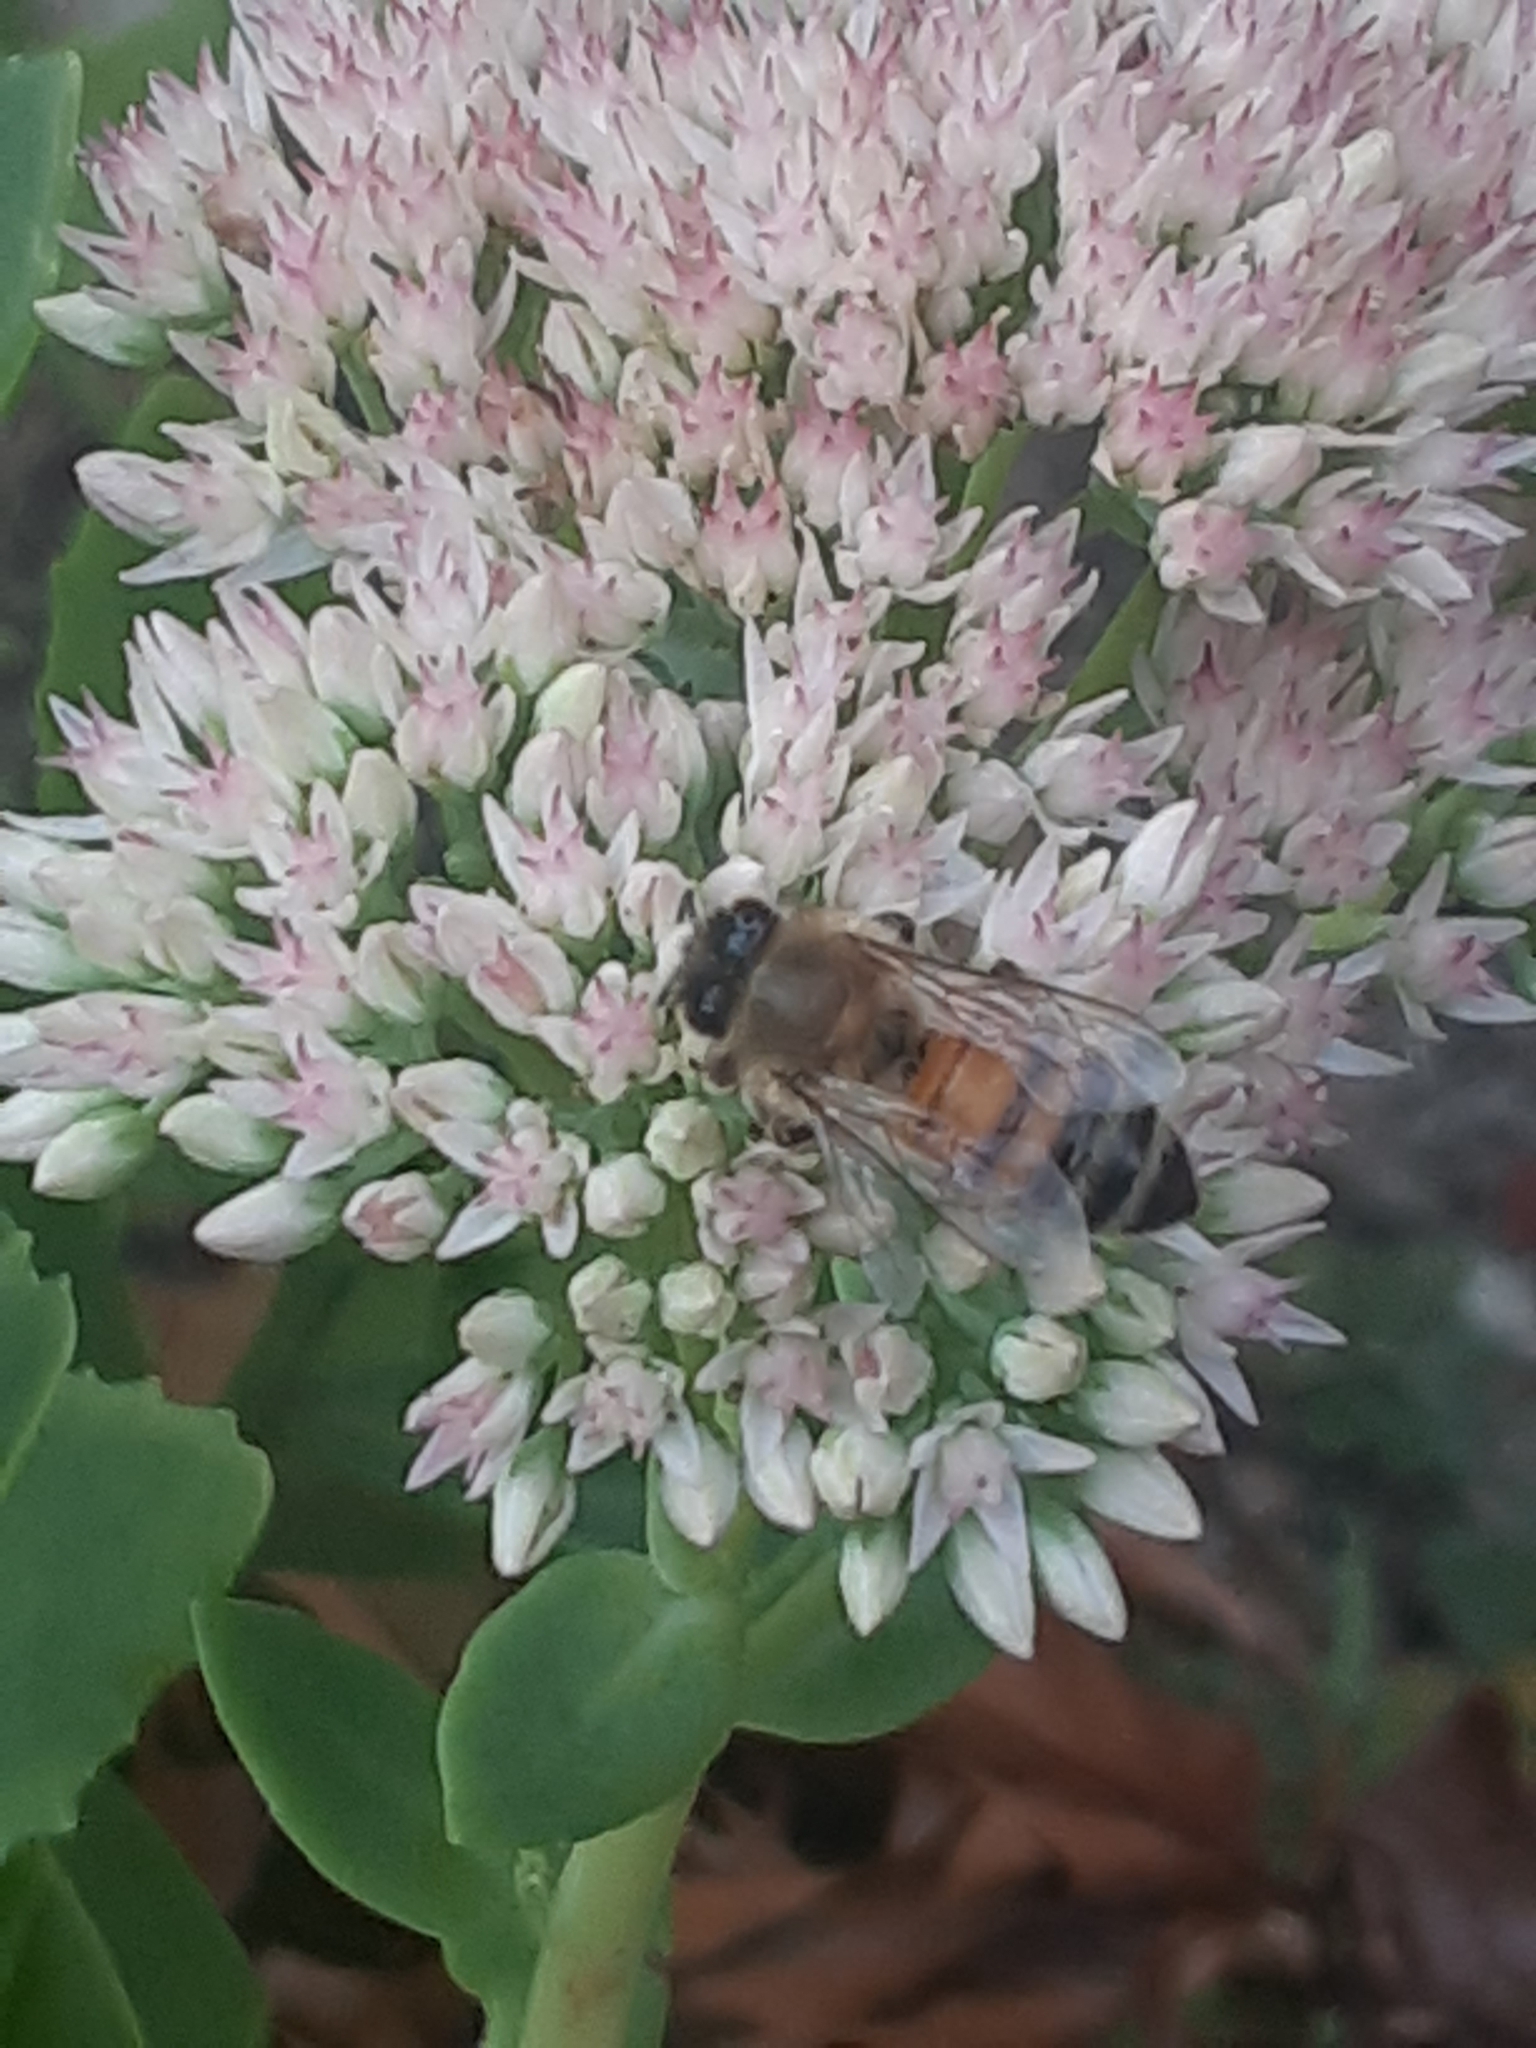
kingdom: Animalia
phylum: Arthropoda
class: Insecta
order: Hymenoptera
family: Apidae
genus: Apis
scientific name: Apis mellifera
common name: Honey bee
